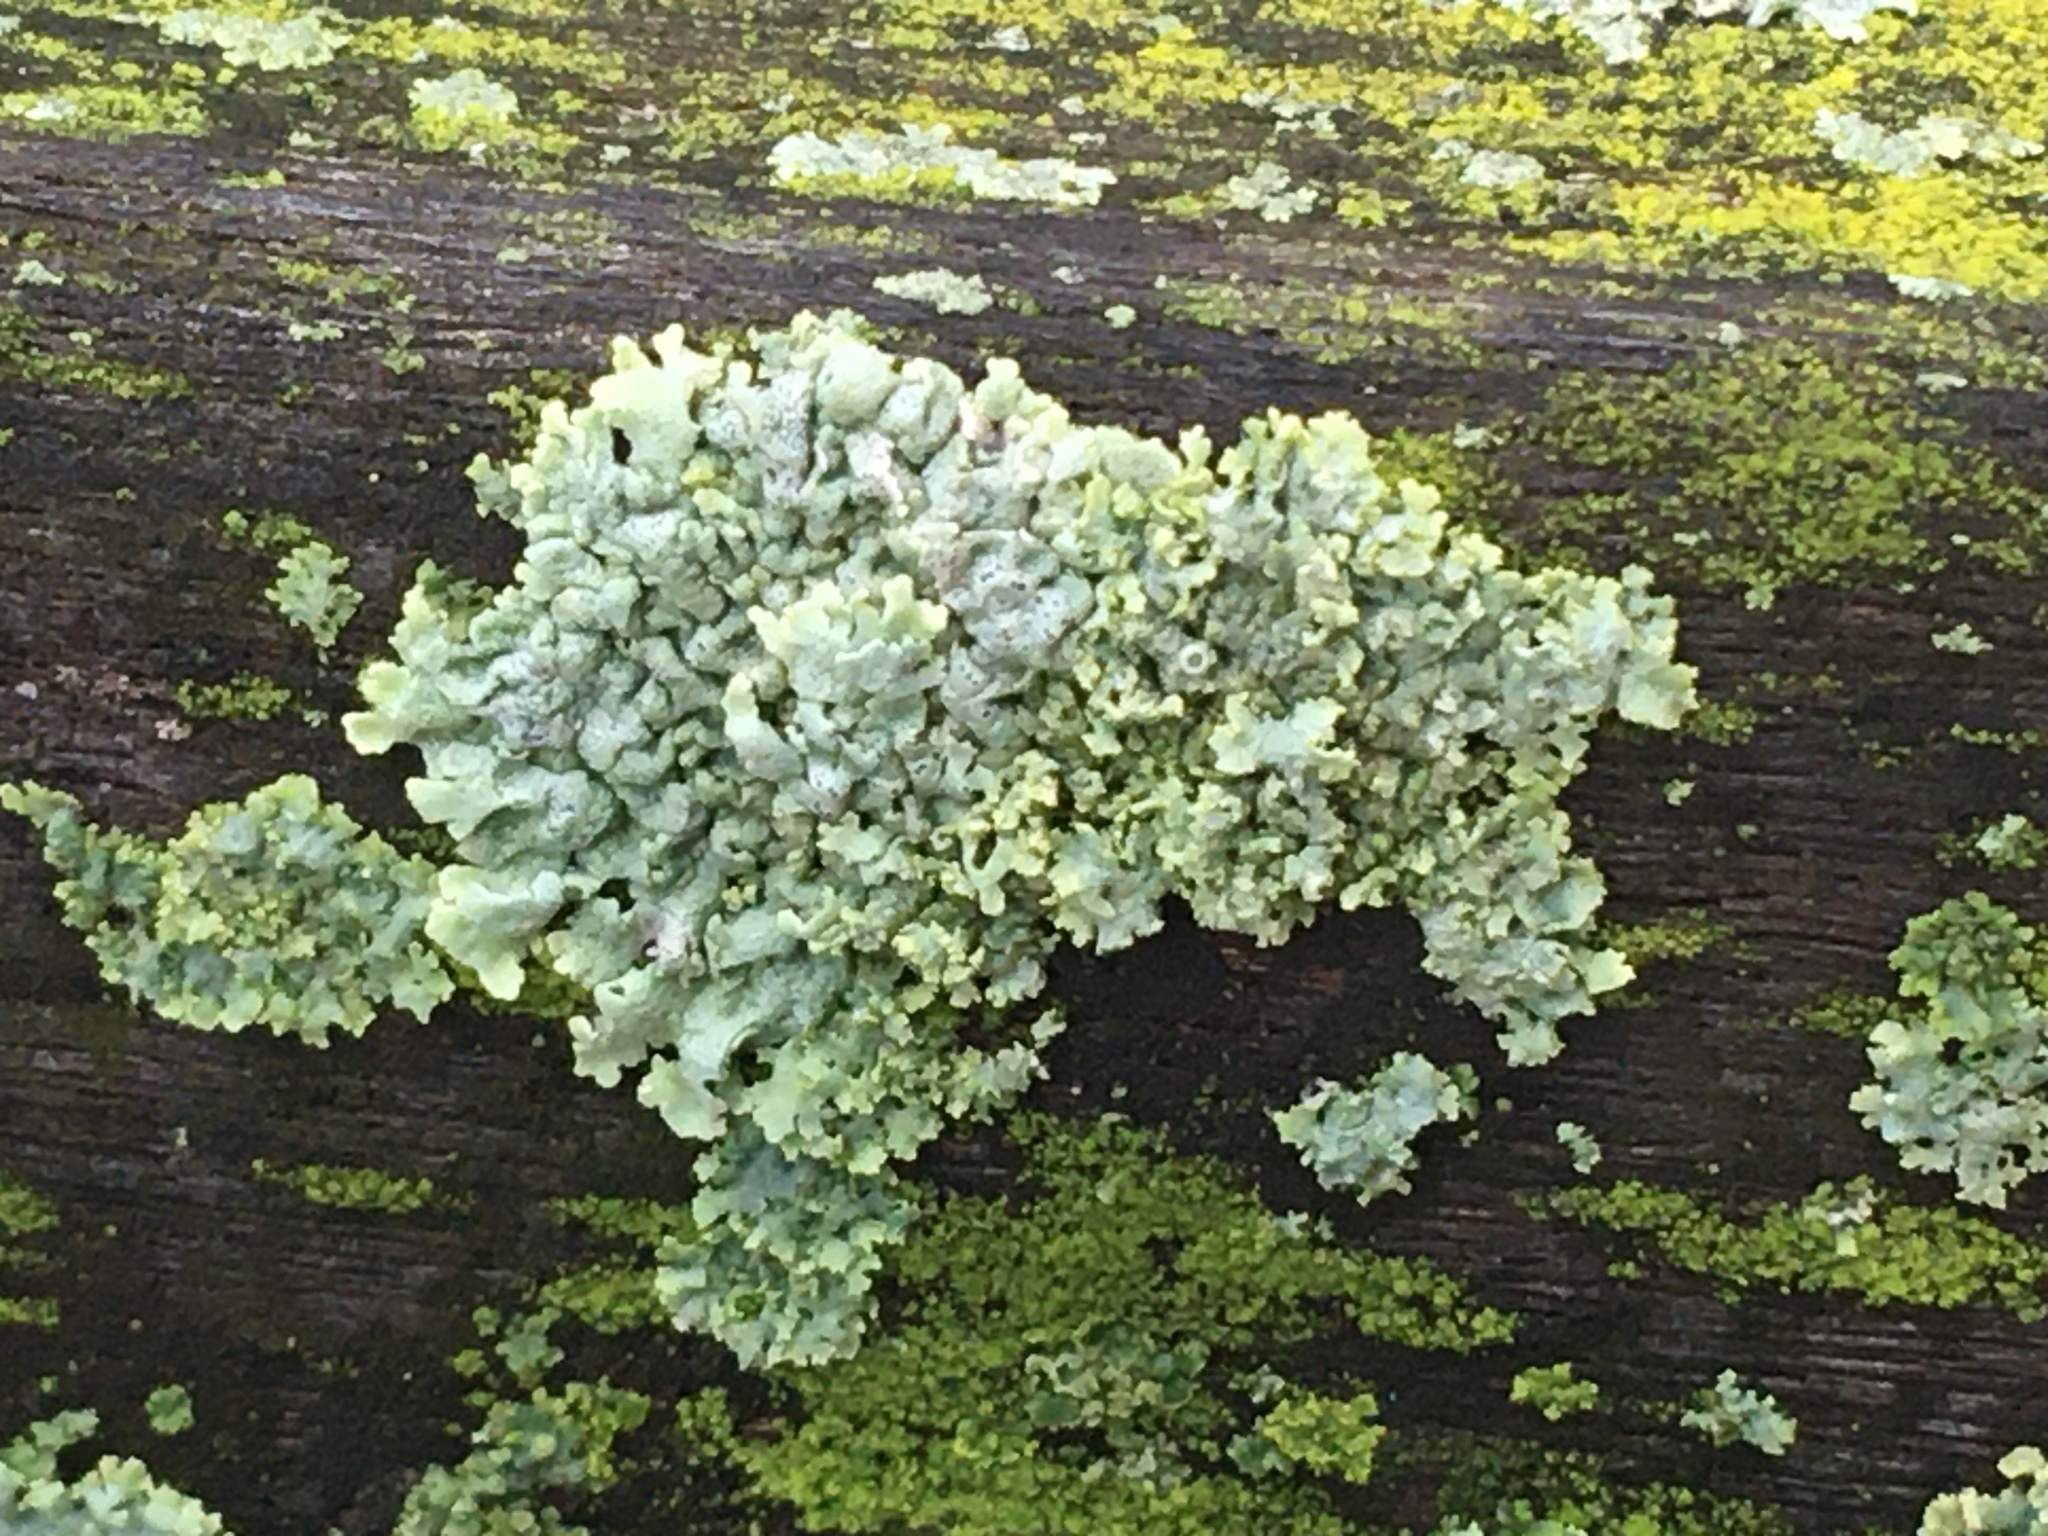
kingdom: Fungi
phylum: Ascomycota
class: Lecanoromycetes
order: Caliciales
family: Physciaceae
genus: Physcia
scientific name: Physcia stellaris
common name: Star rosette lichen
